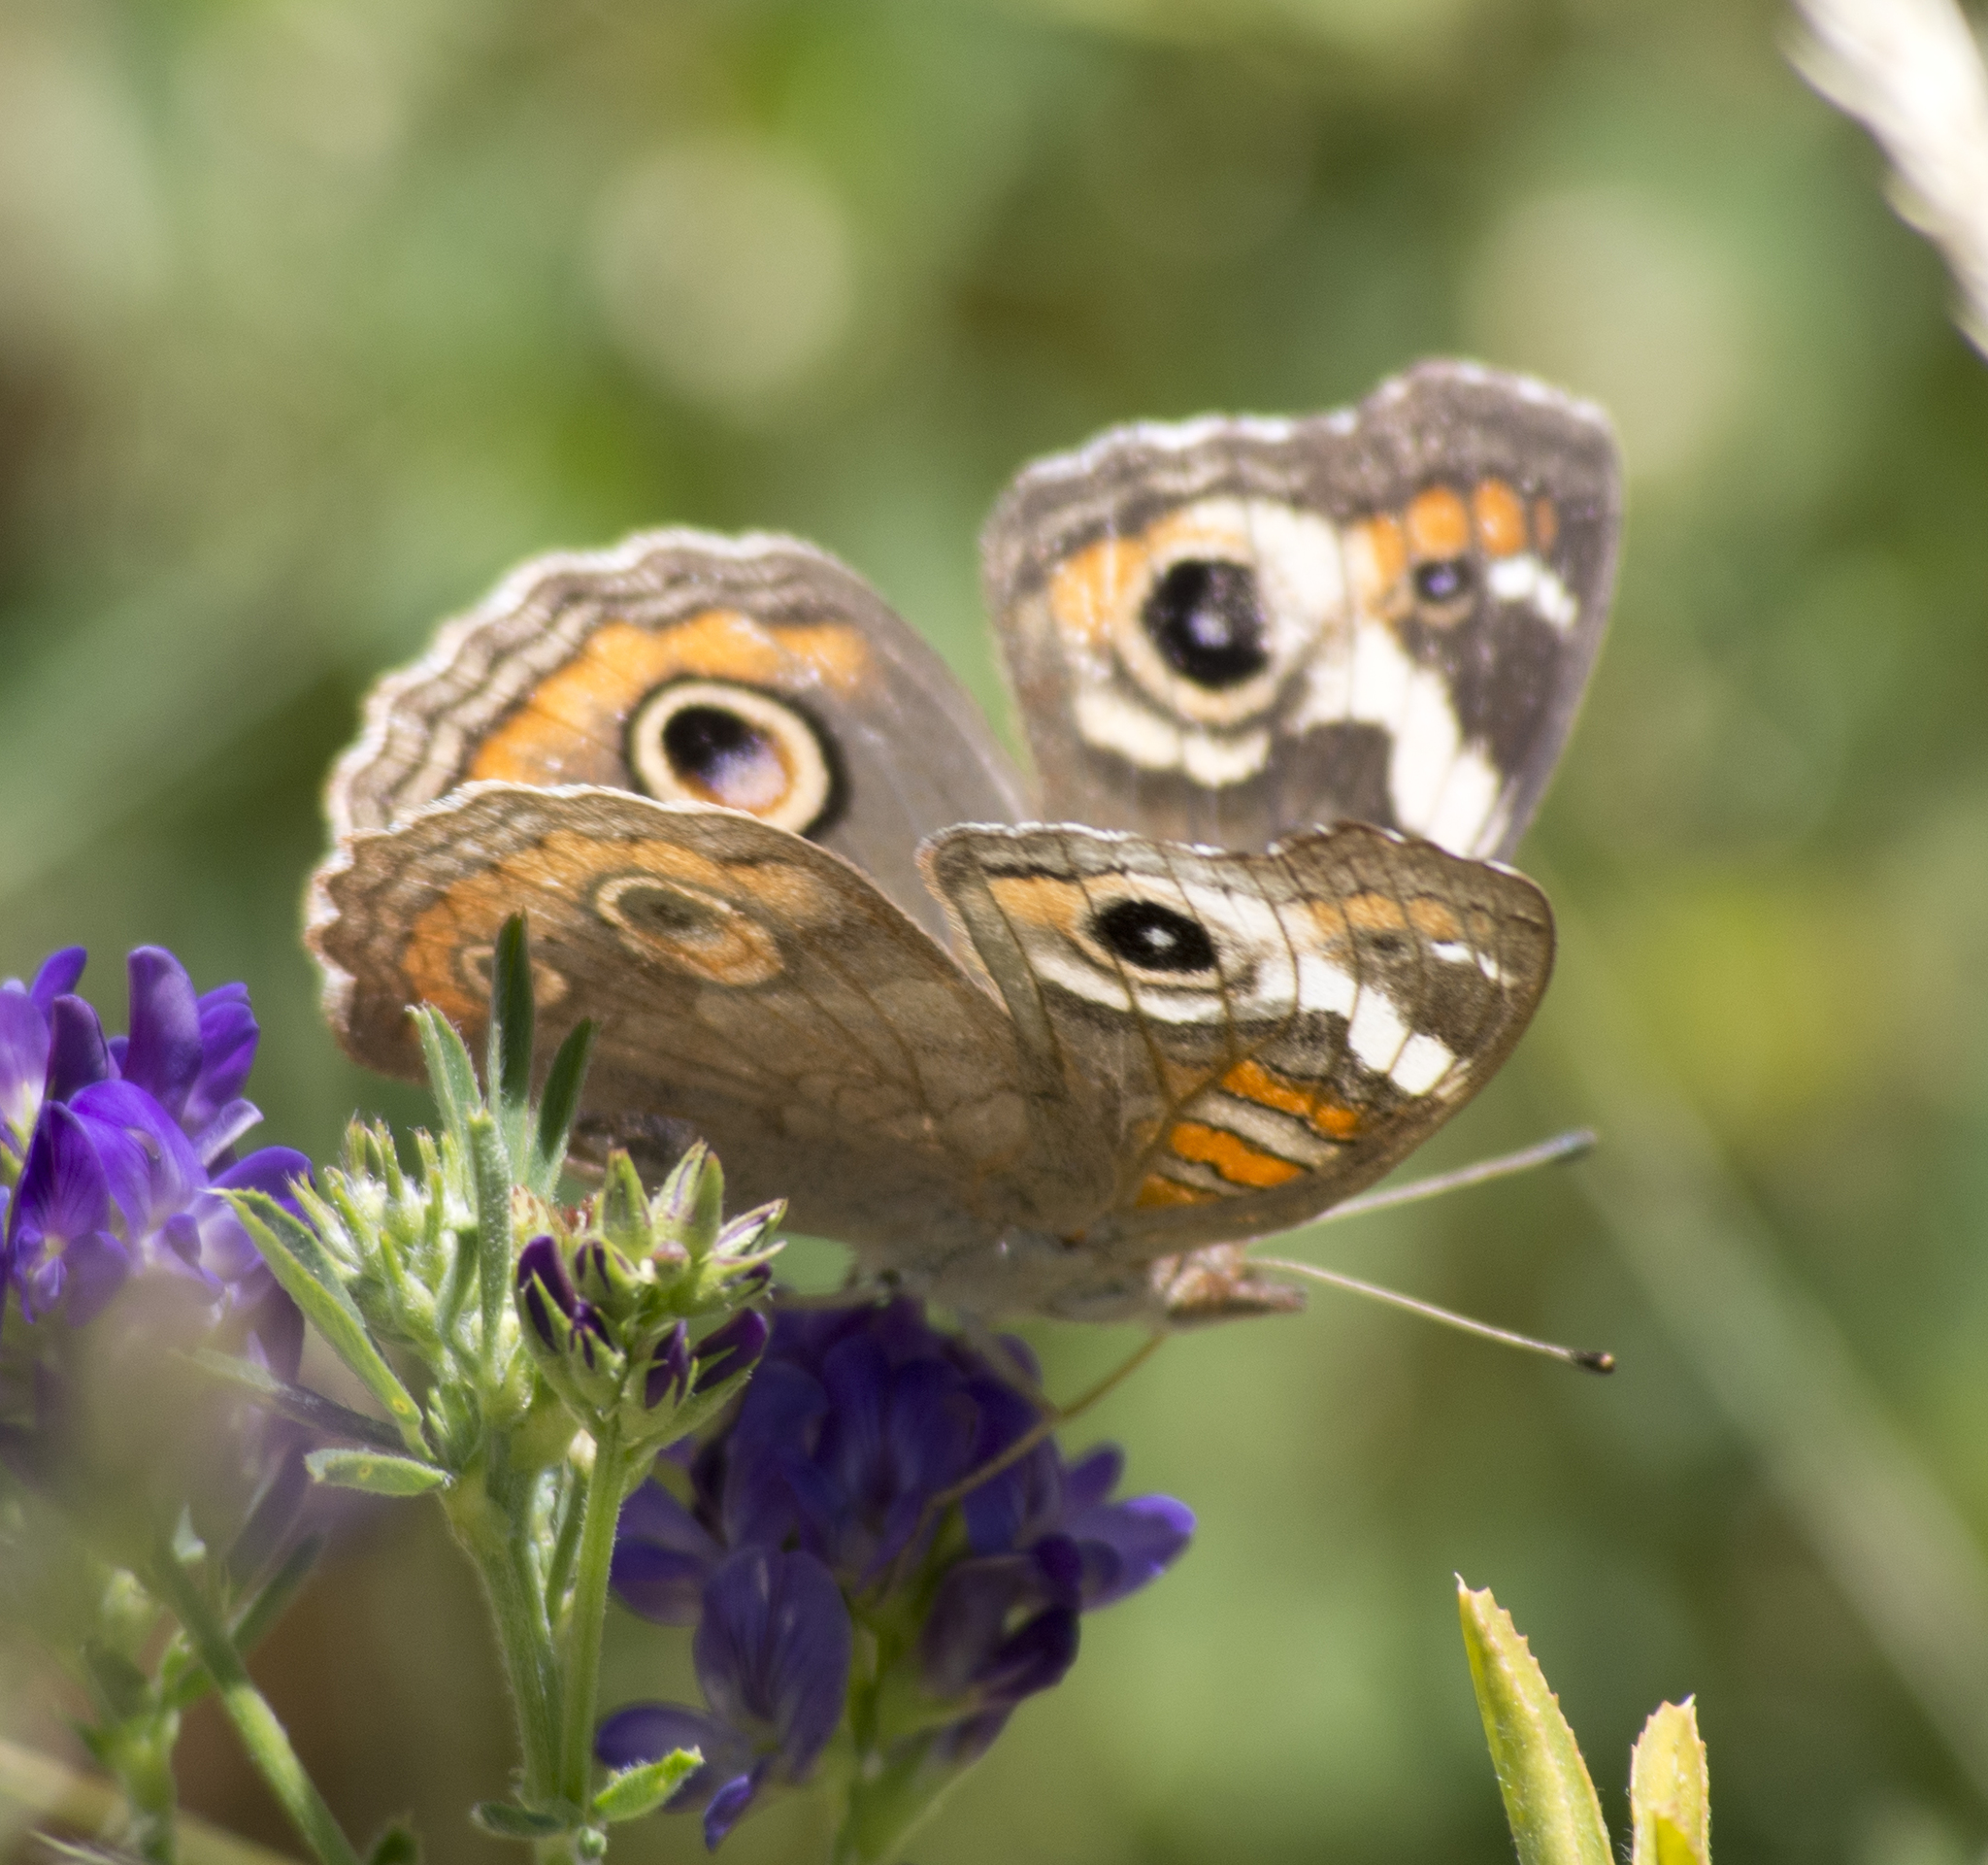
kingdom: Animalia
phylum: Arthropoda
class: Insecta
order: Lepidoptera
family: Nymphalidae
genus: Junonia
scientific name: Junonia grisea
